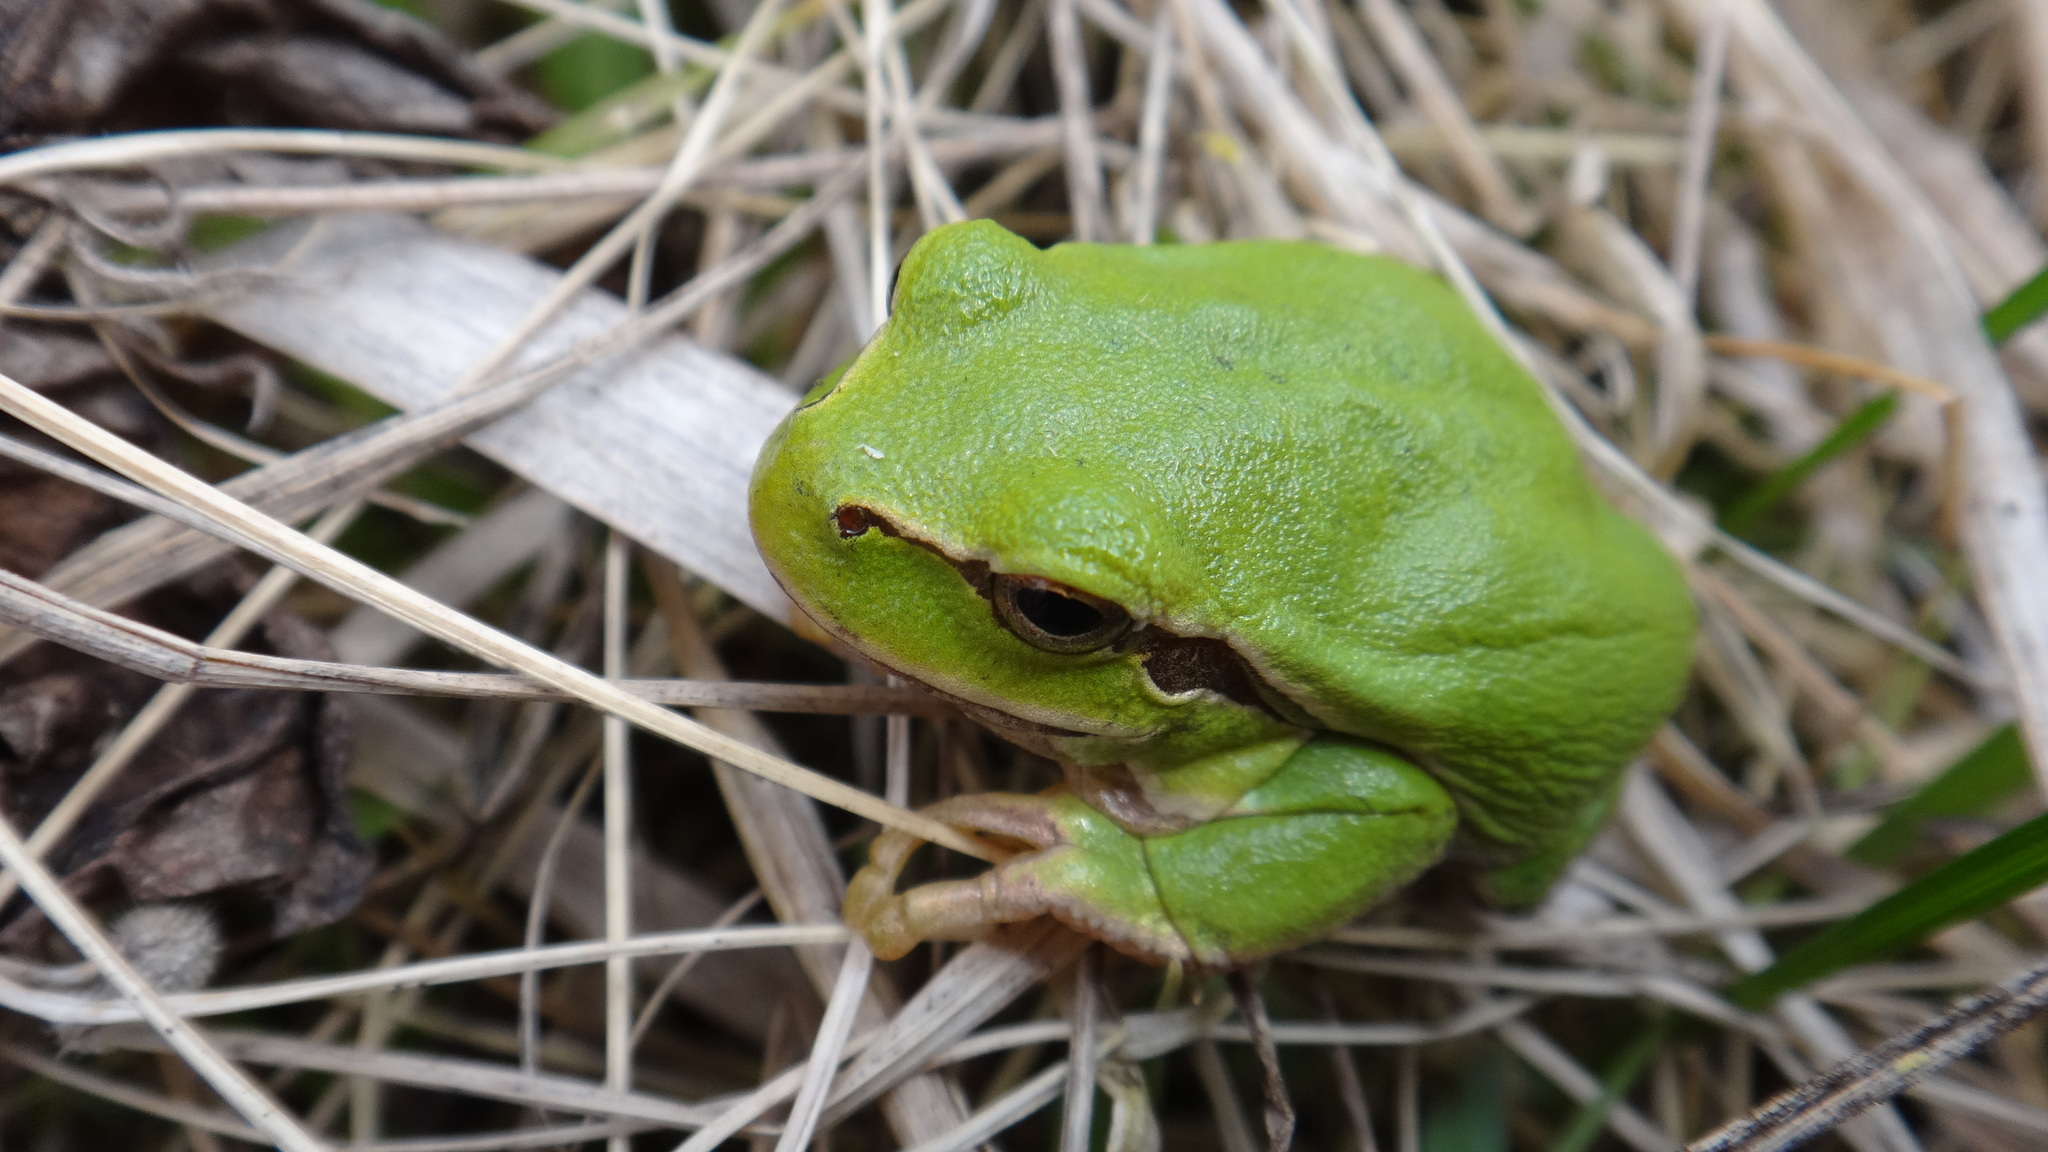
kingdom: Animalia
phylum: Chordata
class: Amphibia
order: Anura
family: Hylidae
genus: Hyla
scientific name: Hyla orientalis
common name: Caucasian treefrog
